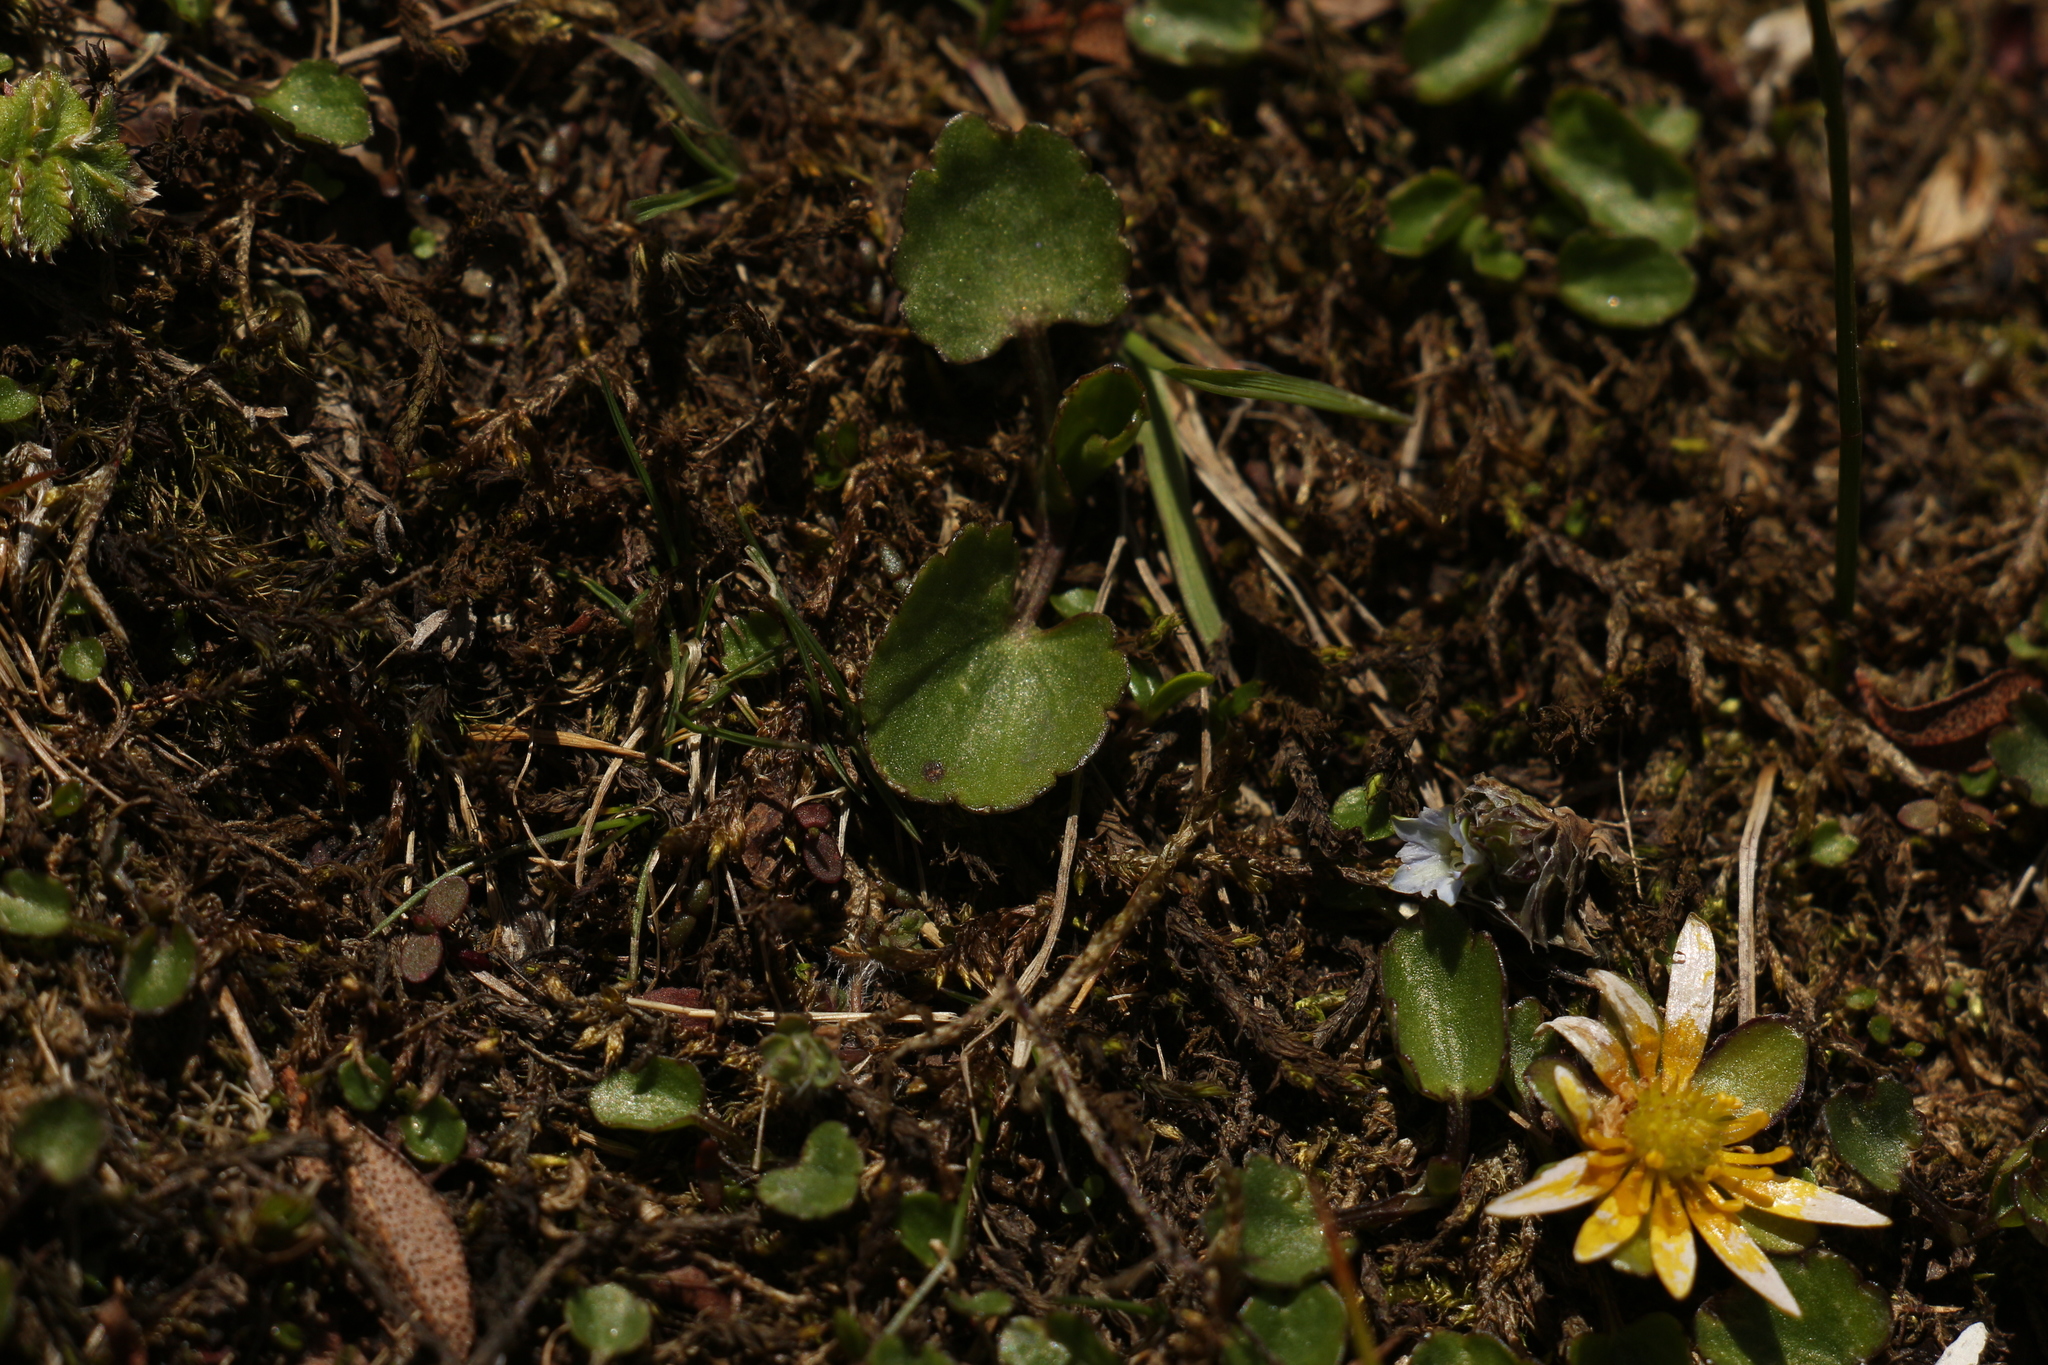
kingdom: Plantae
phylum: Tracheophyta
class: Magnoliopsida
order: Ranunculales
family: Ranunculaceae
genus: Oxygraphis
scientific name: Oxygraphis endlicheri
